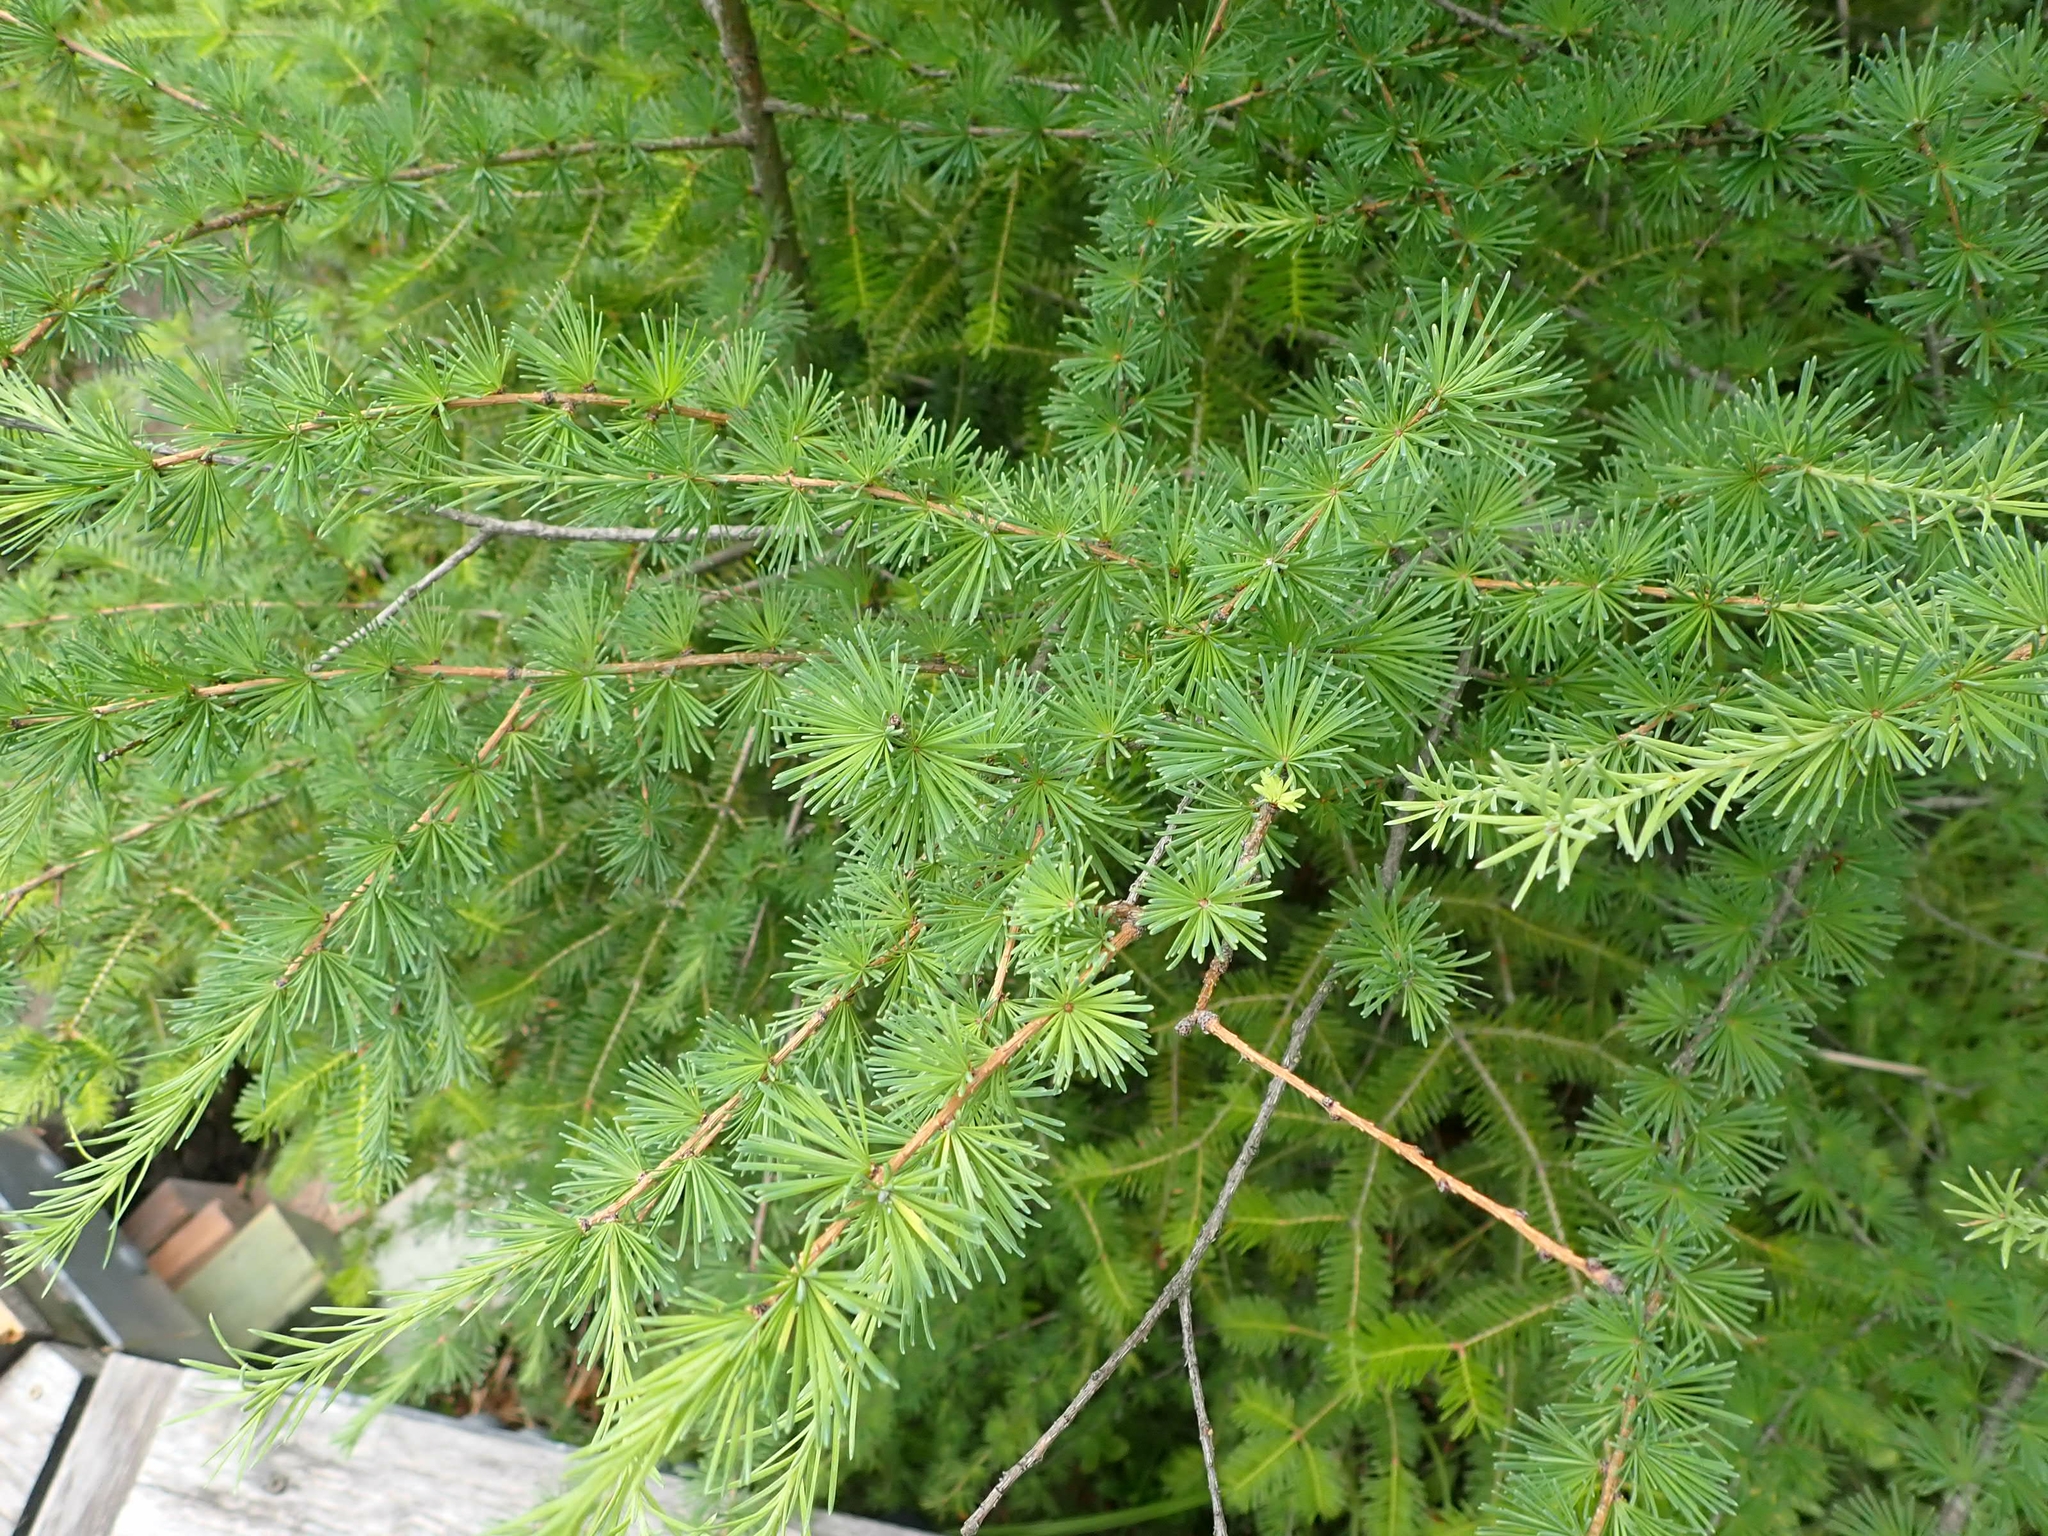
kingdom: Plantae
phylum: Tracheophyta
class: Pinopsida
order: Pinales
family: Pinaceae
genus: Larix
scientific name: Larix laricina
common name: American larch
